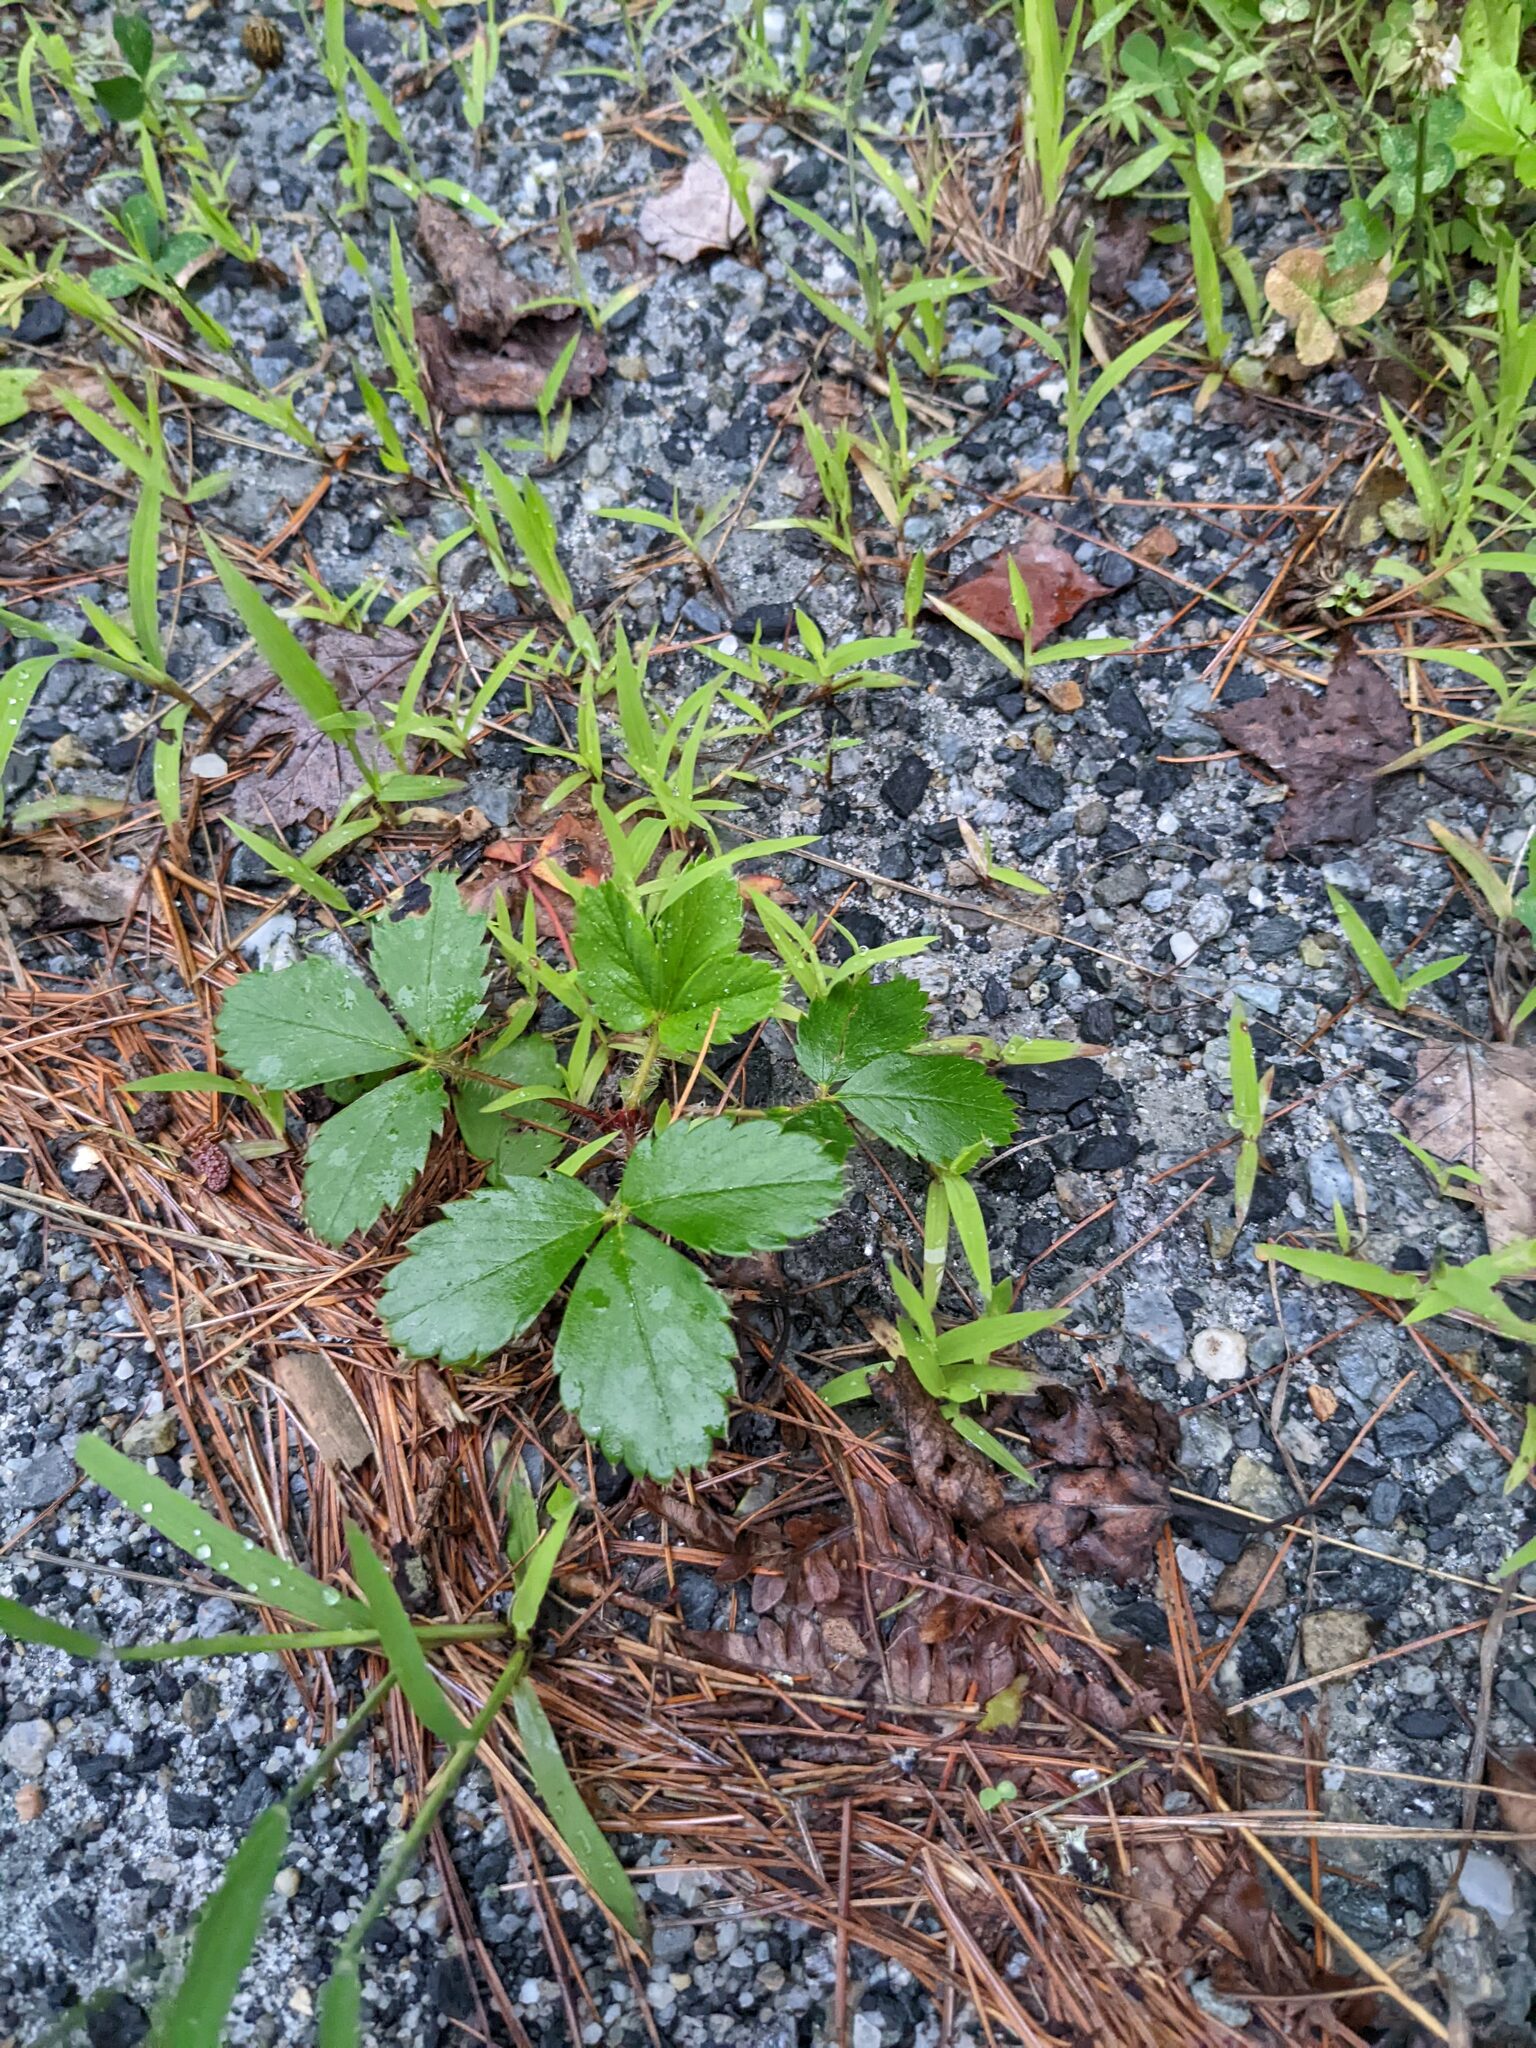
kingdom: Plantae
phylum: Tracheophyta
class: Magnoliopsida
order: Rosales
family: Rosaceae
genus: Fragaria
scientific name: Fragaria virginiana
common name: Thickleaved wild strawberry
